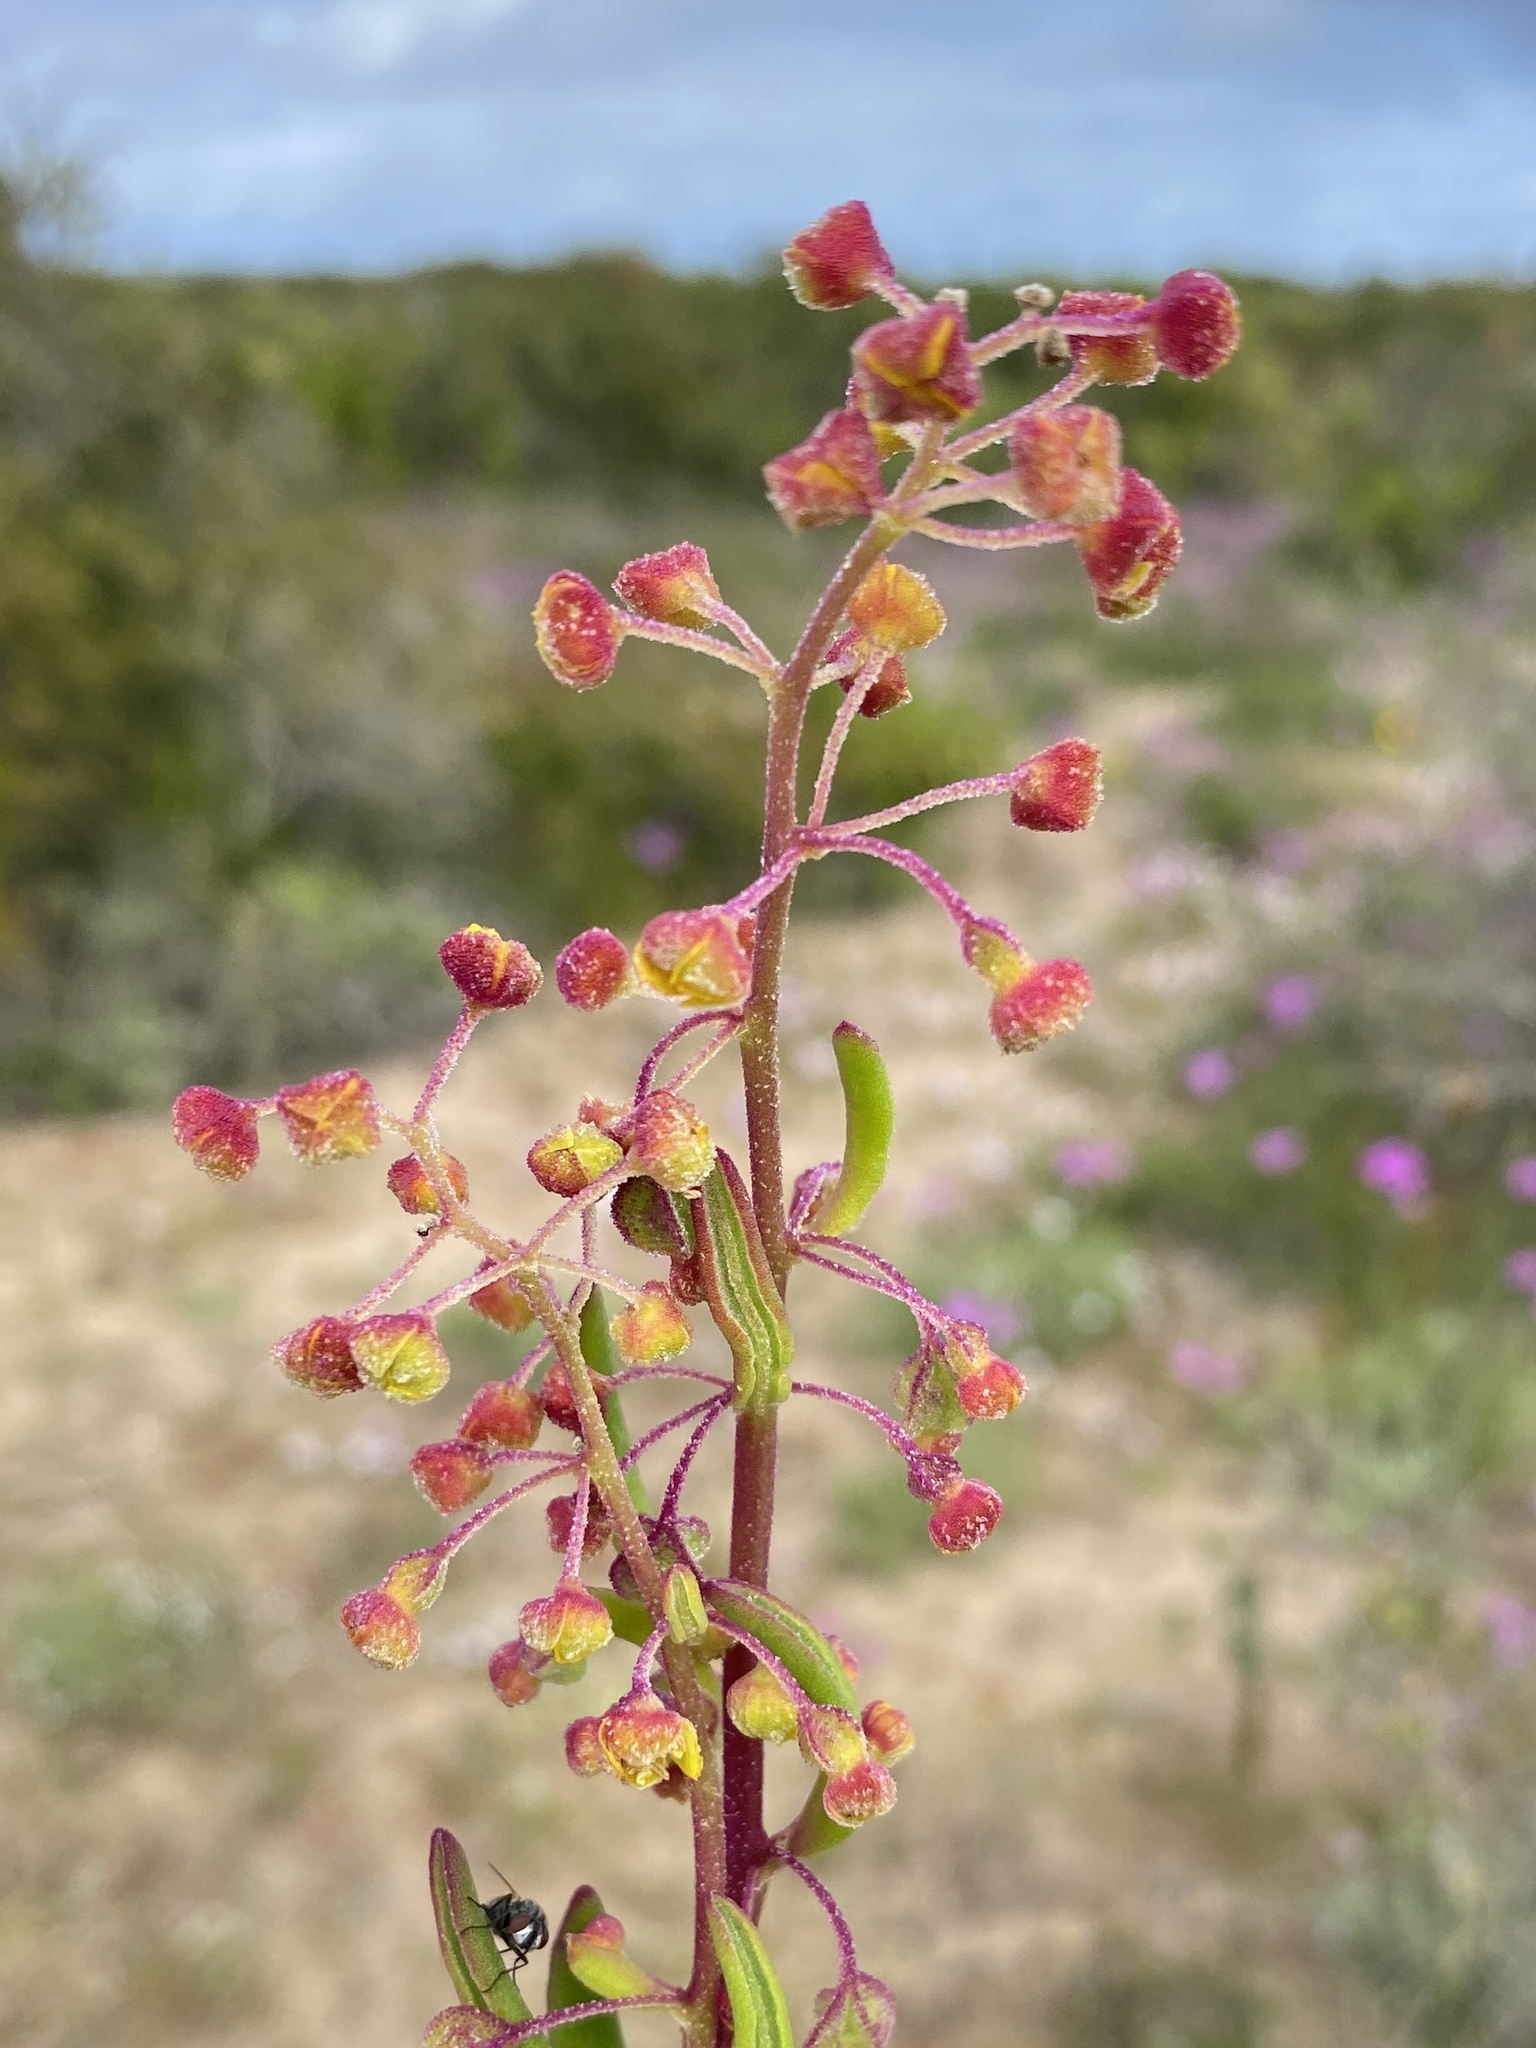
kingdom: Plantae
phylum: Tracheophyta
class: Magnoliopsida
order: Caryophyllales
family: Aizoaceae
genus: Tetragonia
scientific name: Tetragonia fruticosa
